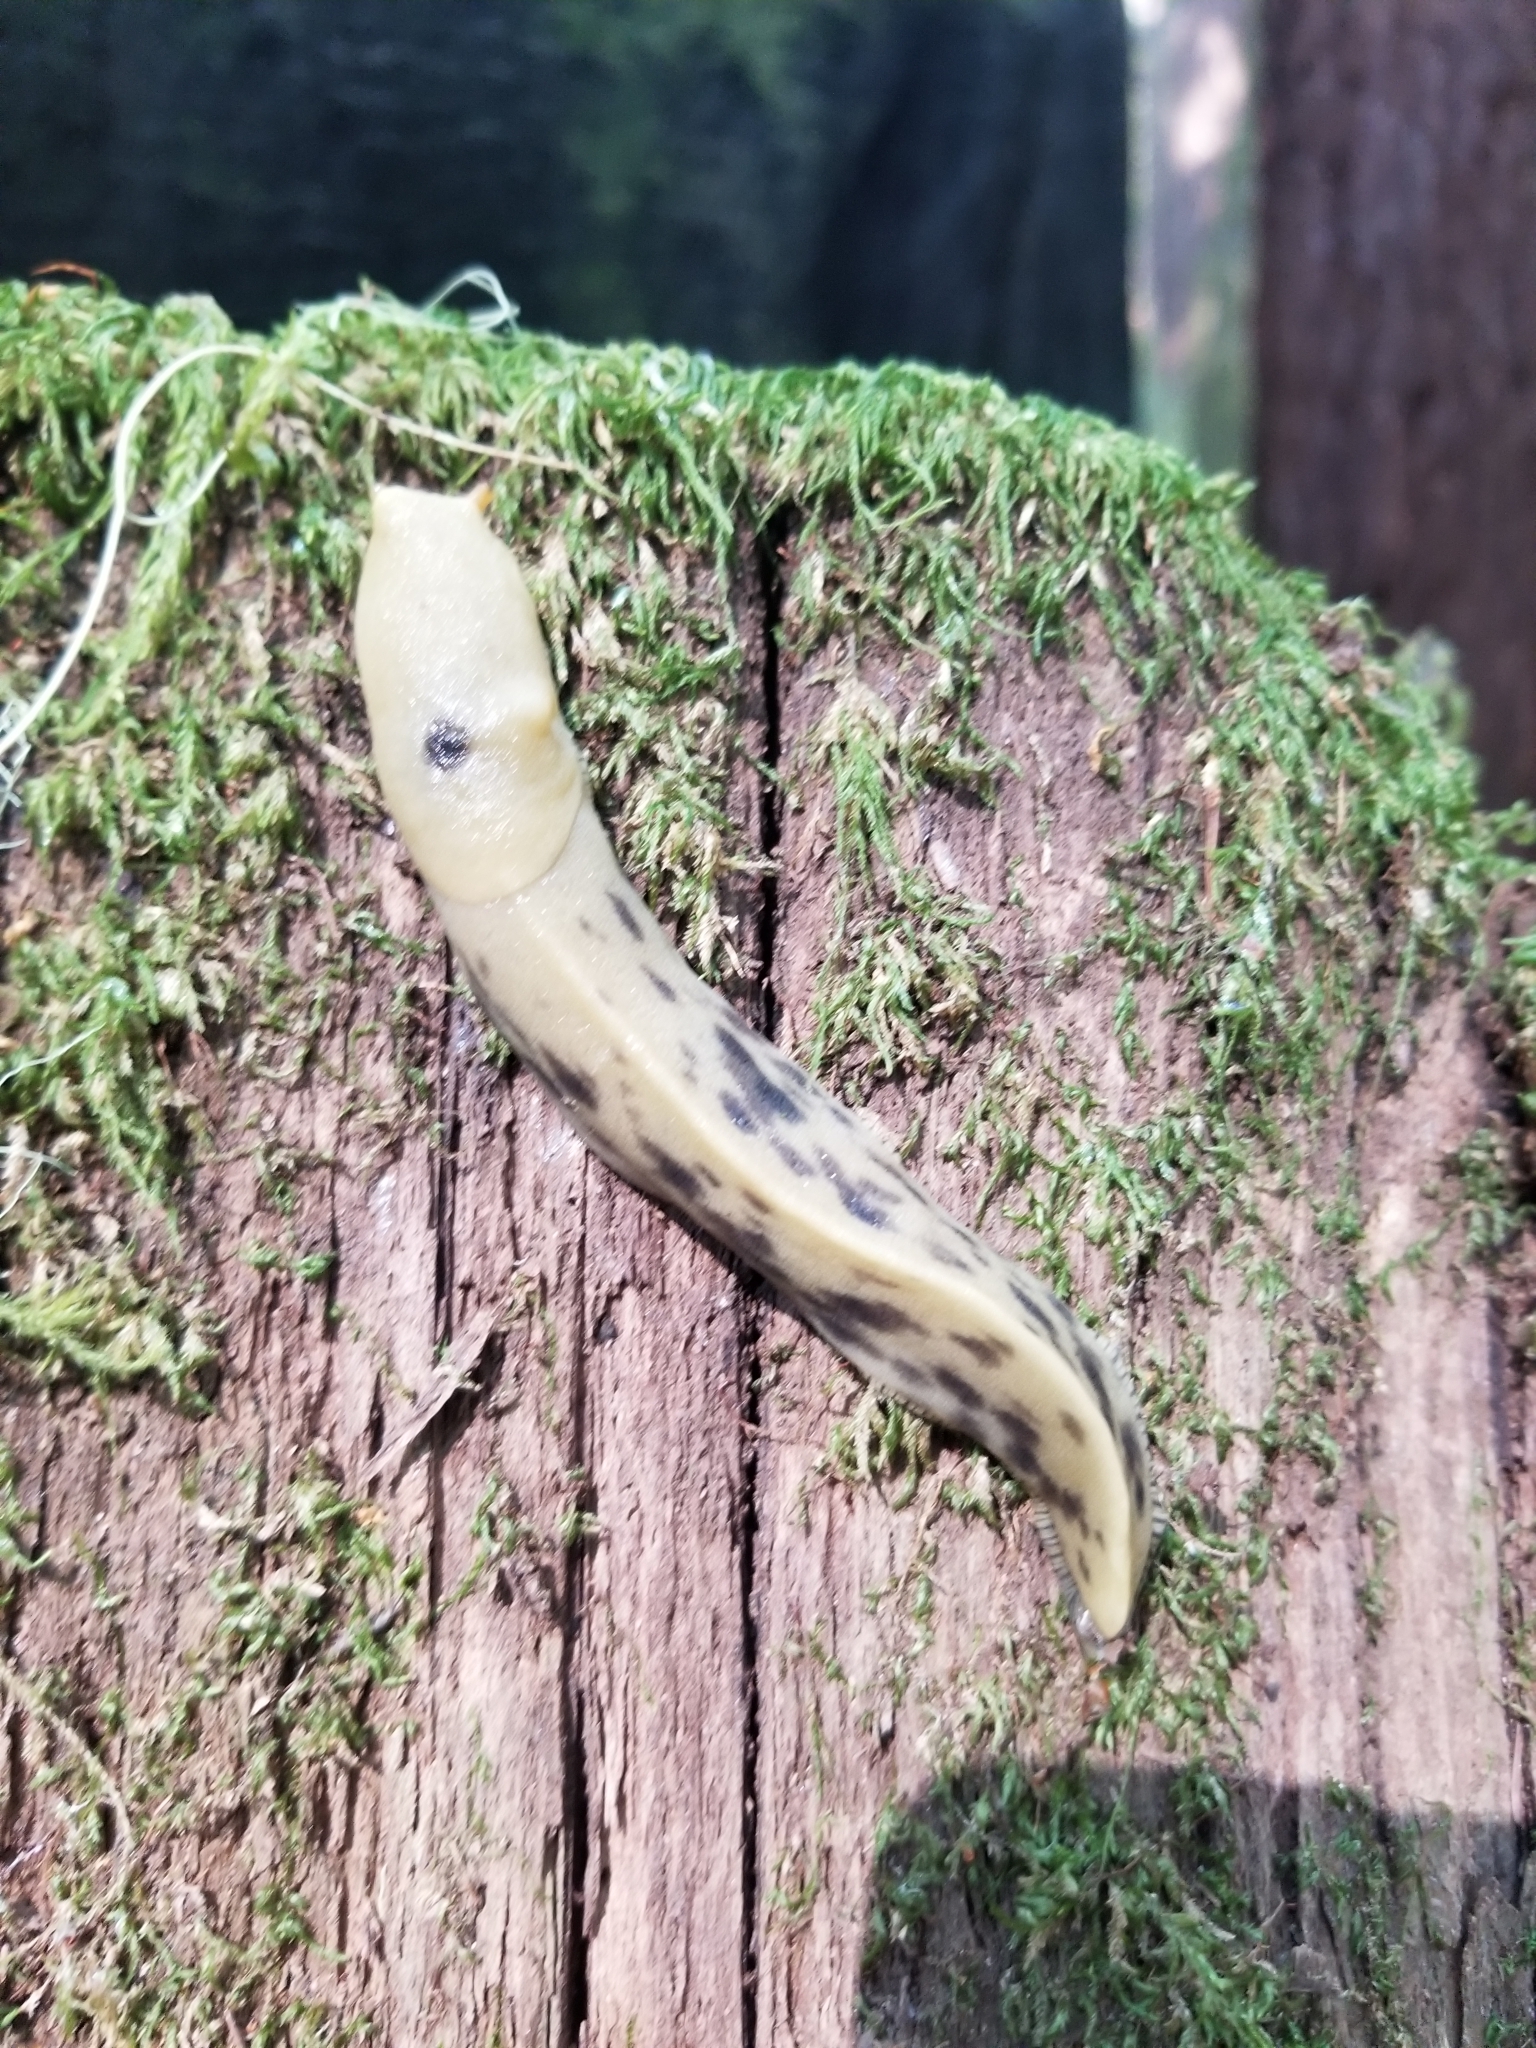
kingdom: Animalia
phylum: Mollusca
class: Gastropoda
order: Stylommatophora
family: Ariolimacidae
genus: Ariolimax
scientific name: Ariolimax columbianus
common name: Pacific banana slug
